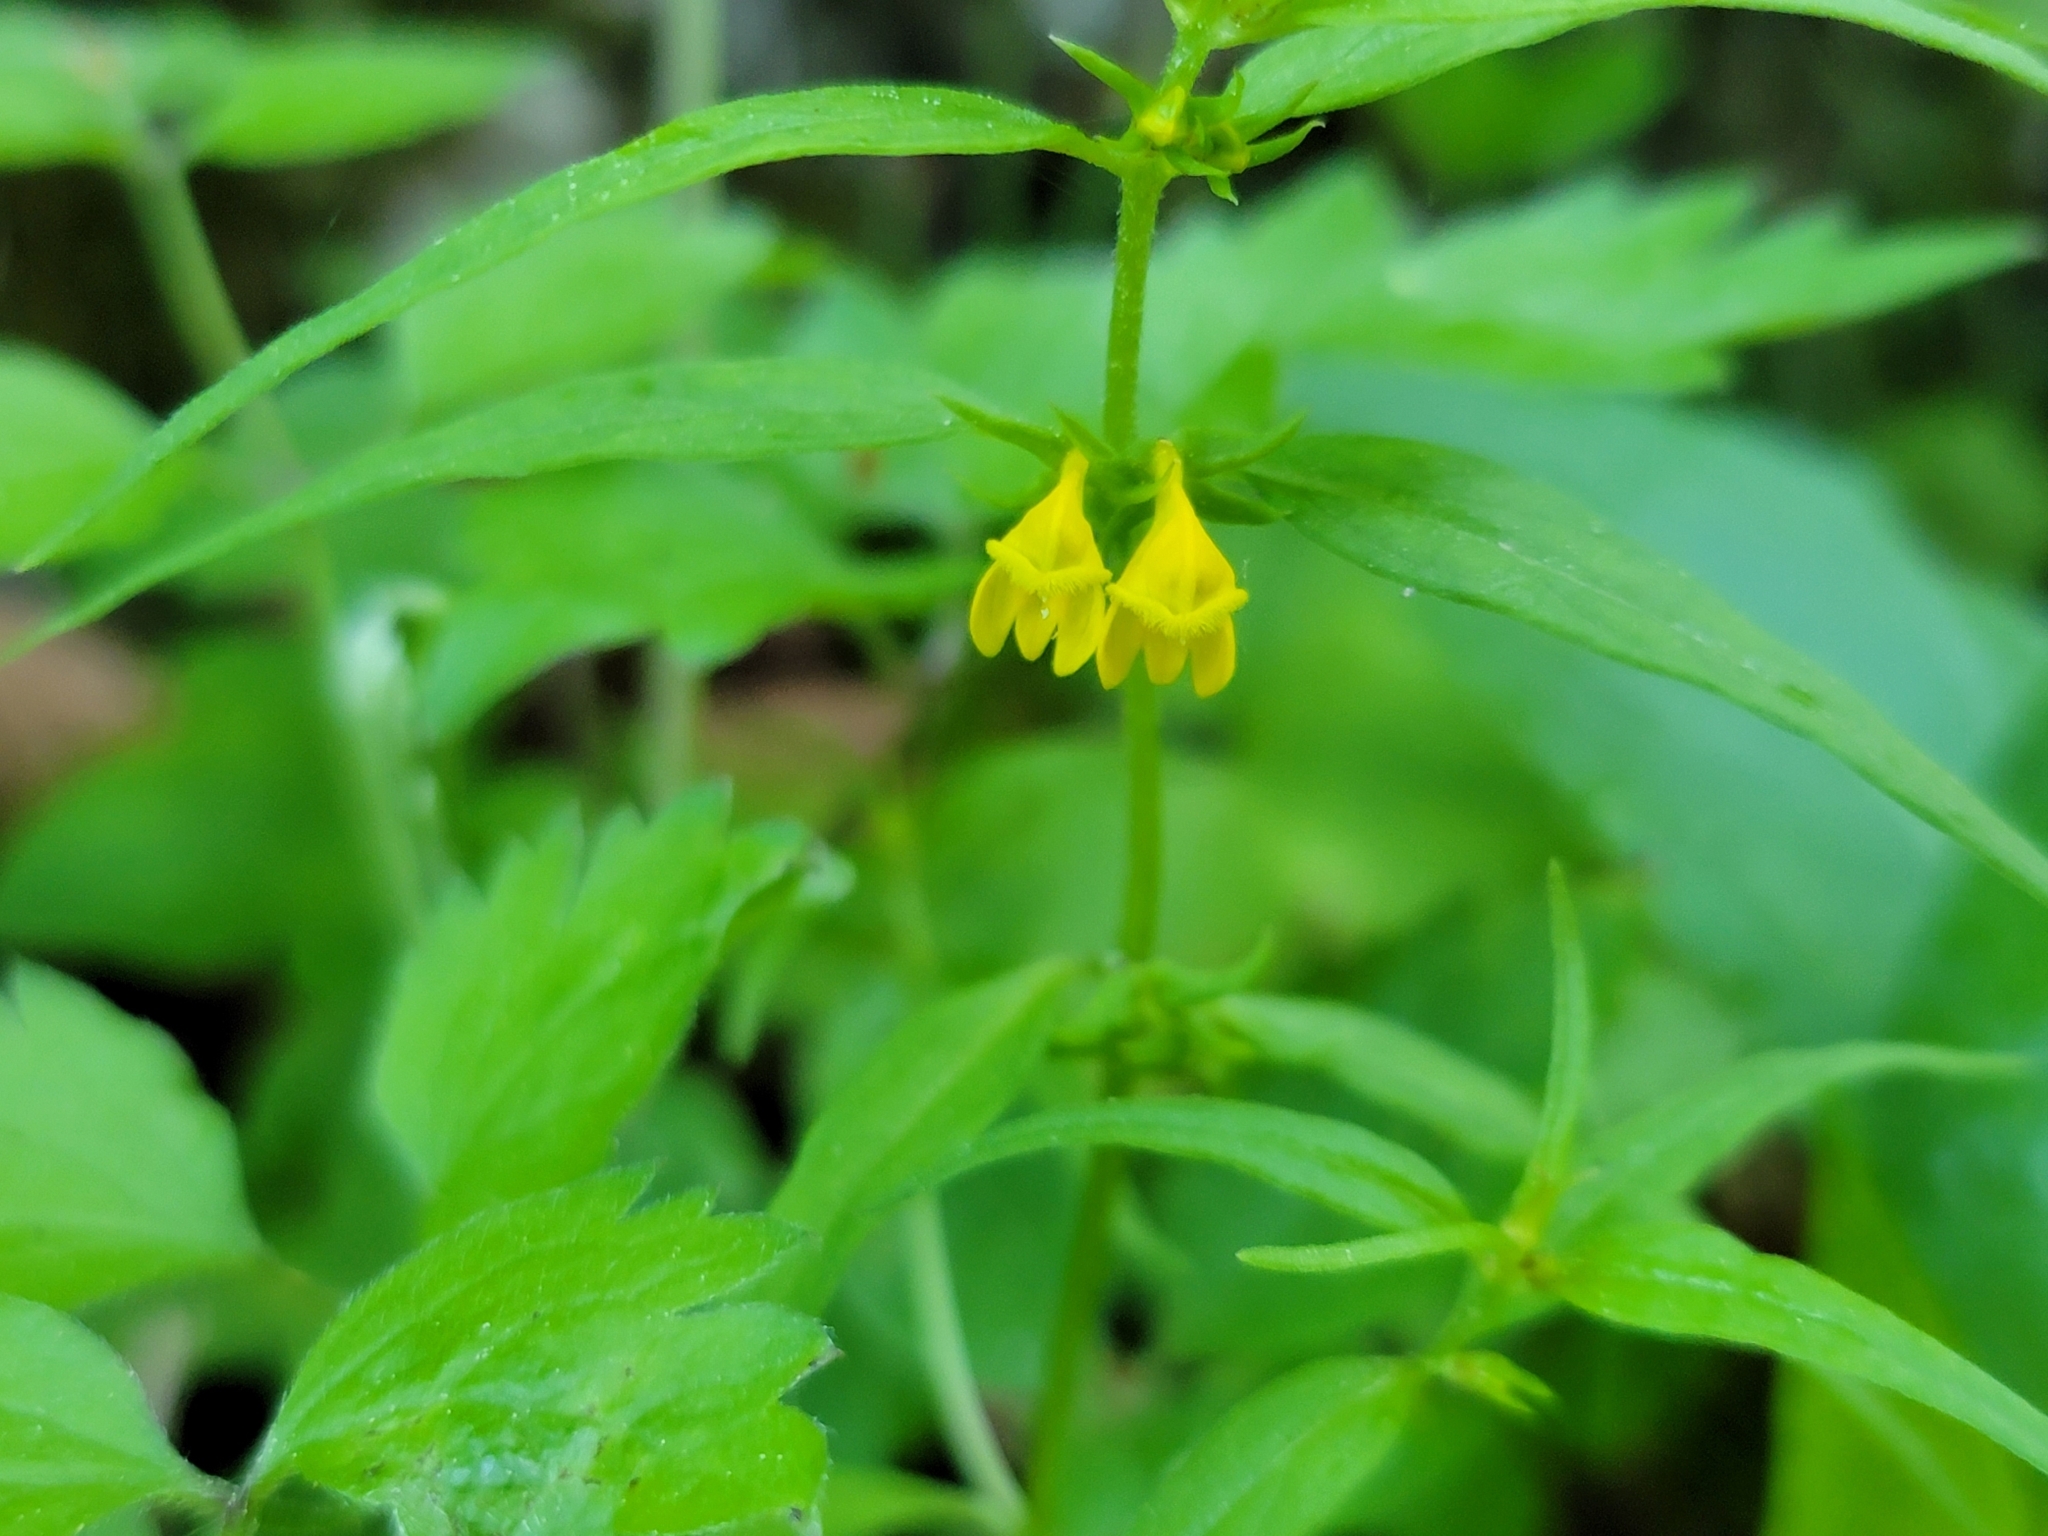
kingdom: Plantae
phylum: Tracheophyta
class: Magnoliopsida
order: Lamiales
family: Orobanchaceae
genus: Melampyrum
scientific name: Melampyrum sylvaticum
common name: Small cow-wheat
